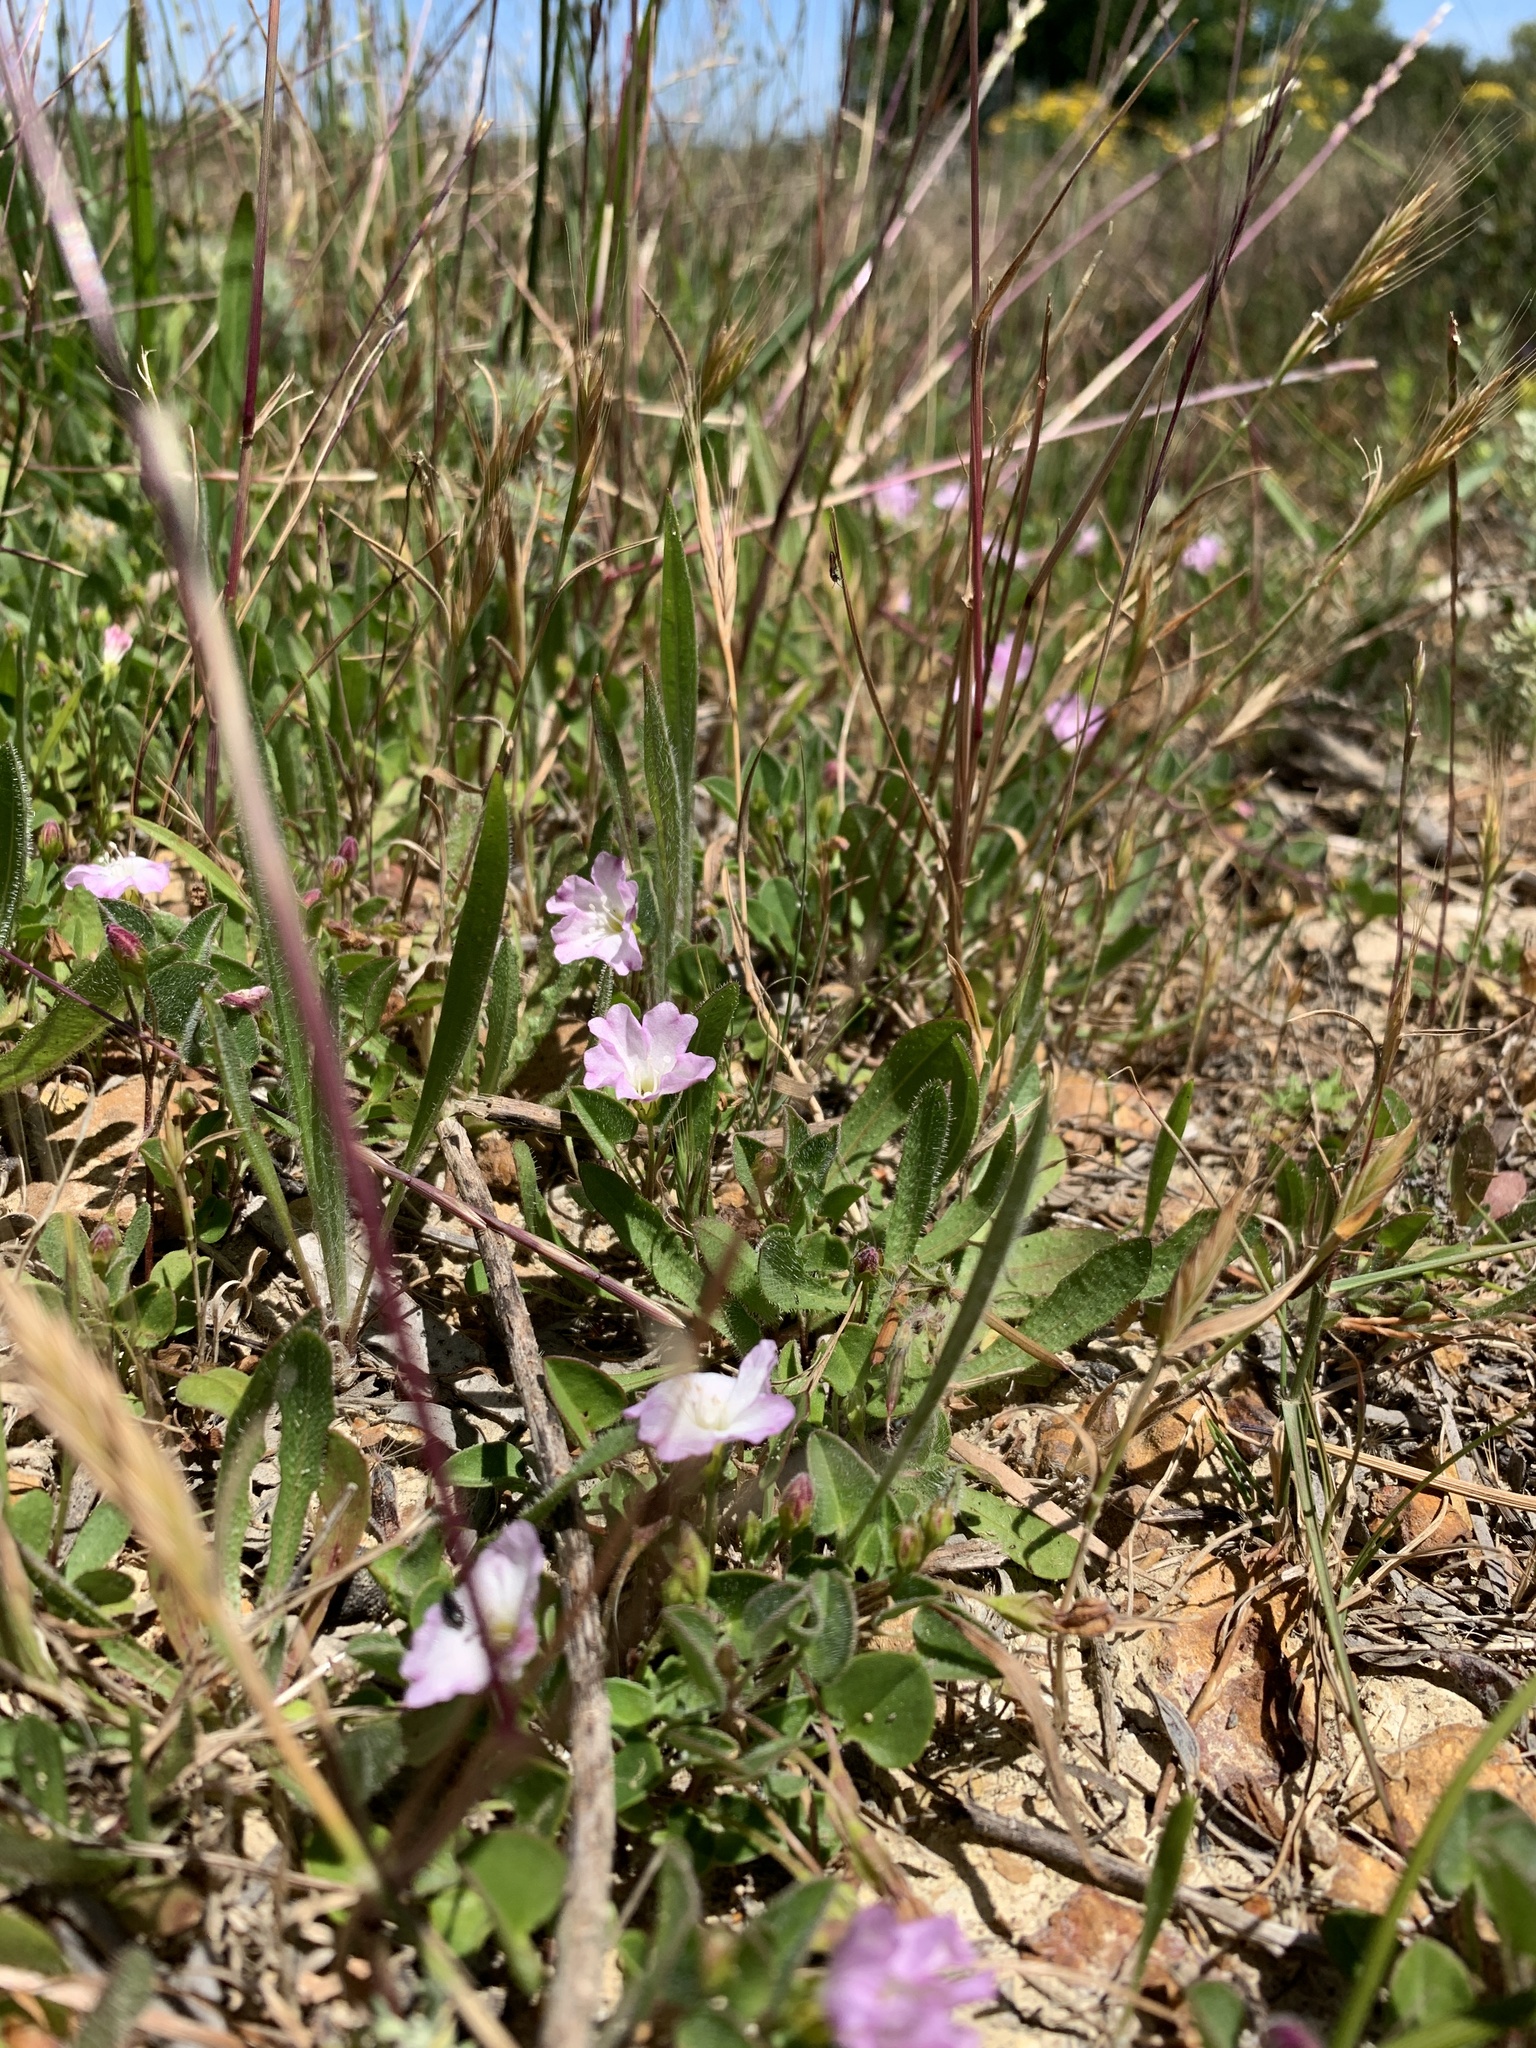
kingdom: Plantae
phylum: Tracheophyta
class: Magnoliopsida
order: Solanales
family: Convolvulaceae
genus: Falkia
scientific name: Falkia repens
